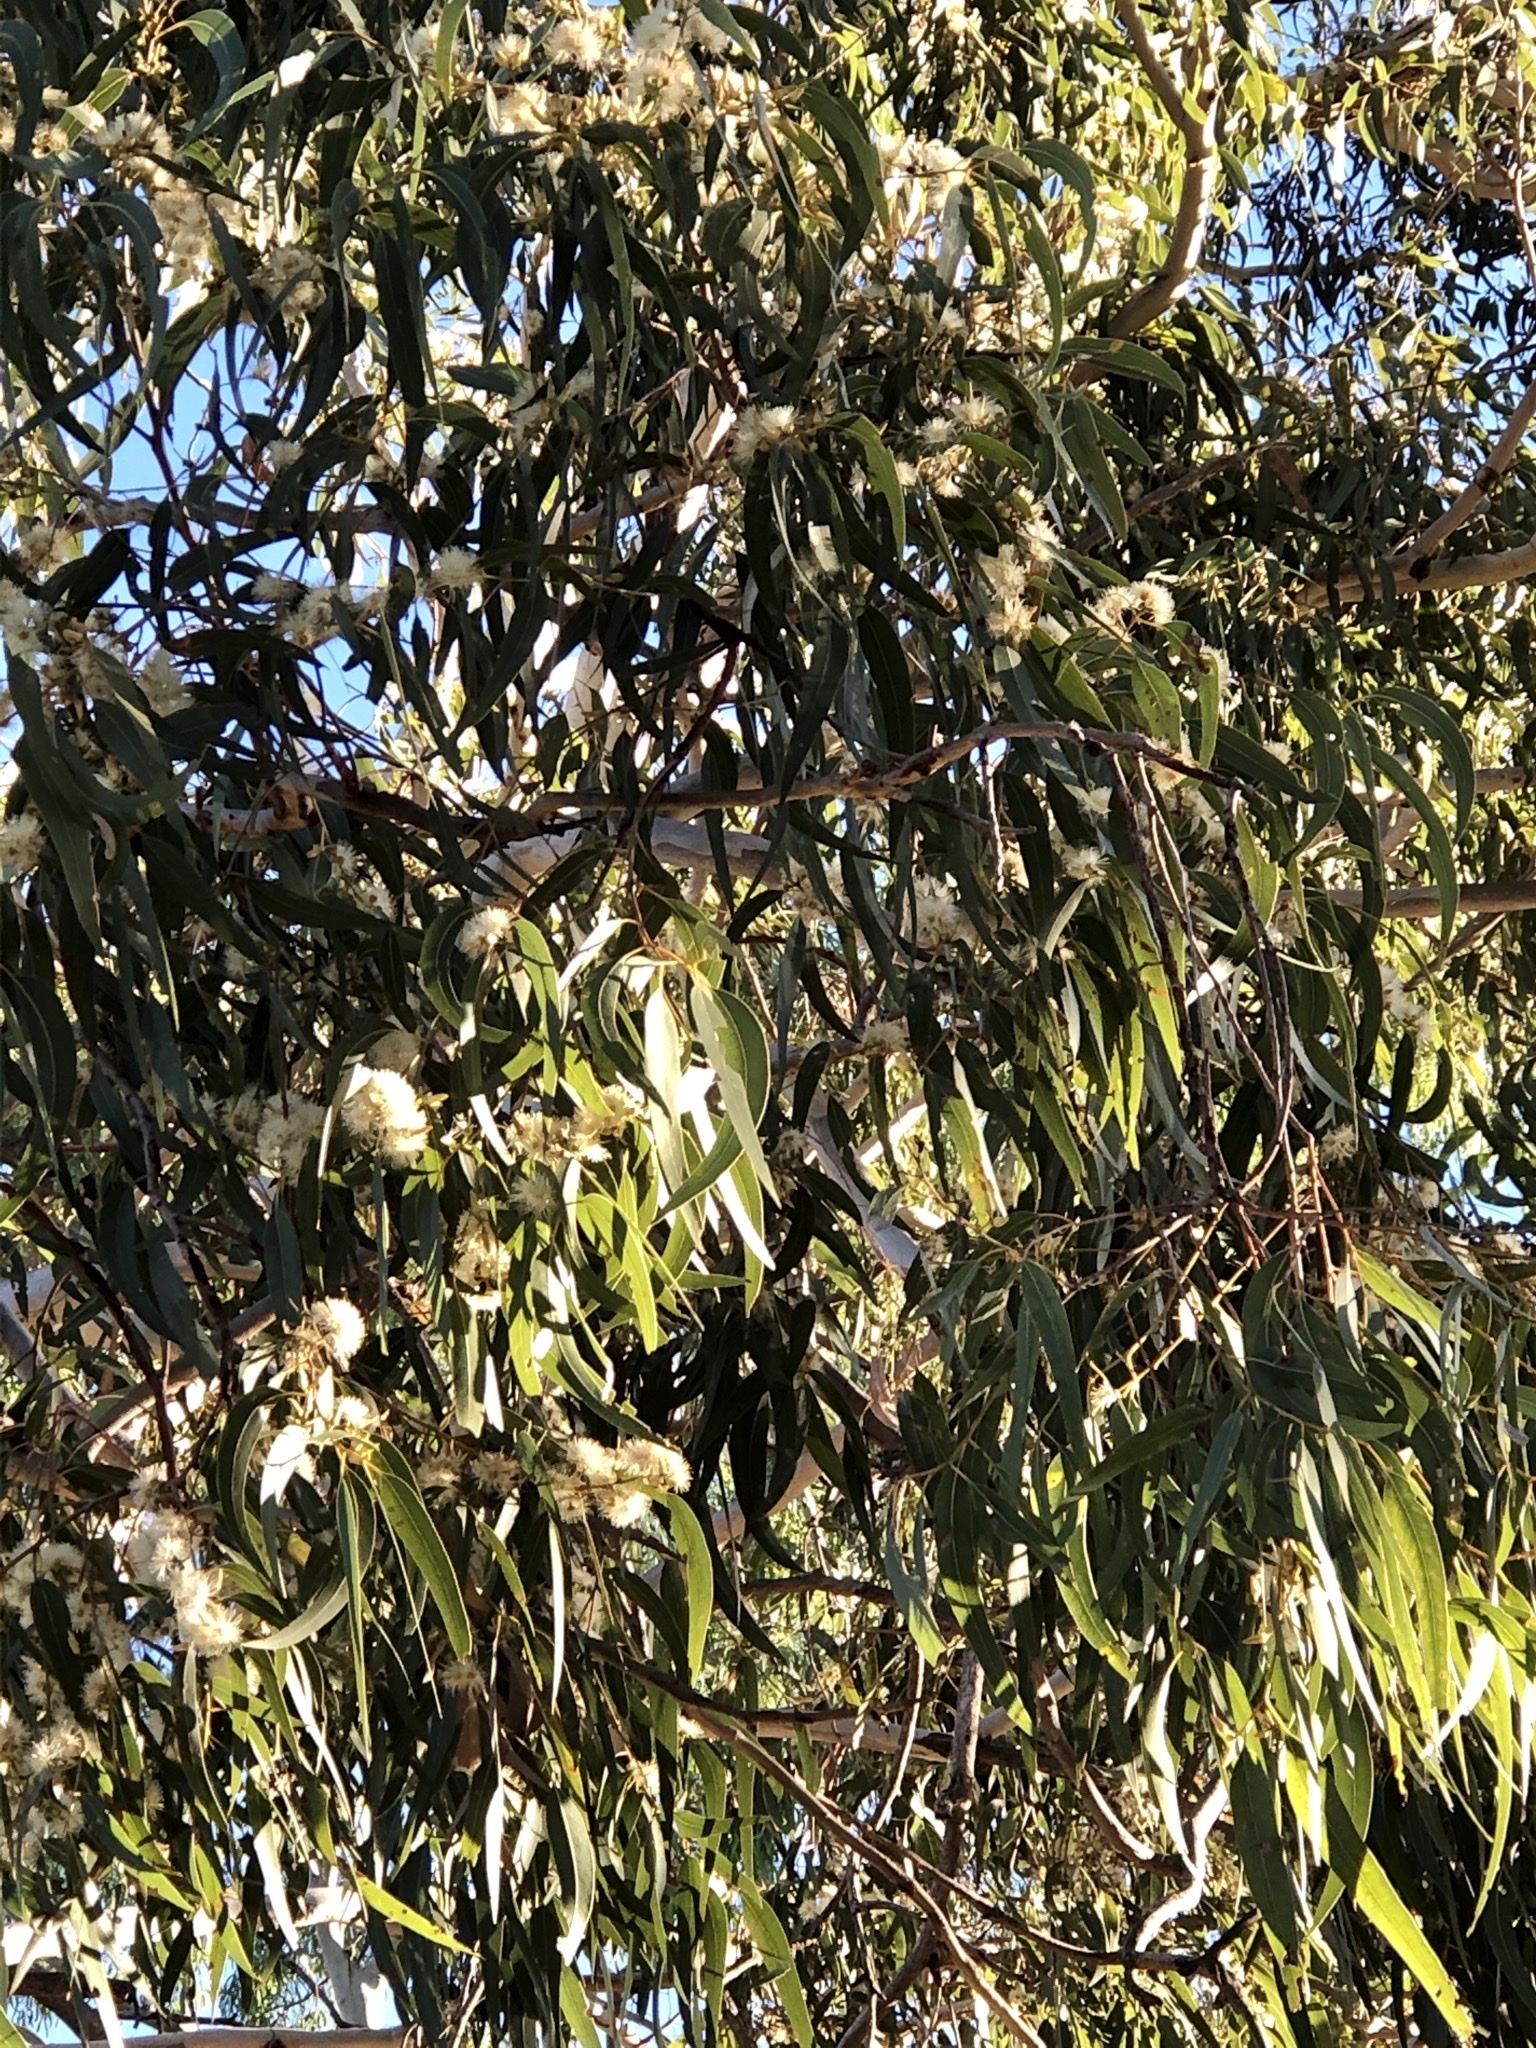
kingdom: Plantae
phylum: Tracheophyta
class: Magnoliopsida
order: Myrtales
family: Myrtaceae
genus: Eucalyptus
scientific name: Eucalyptus tereticornis
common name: Forest redgum
